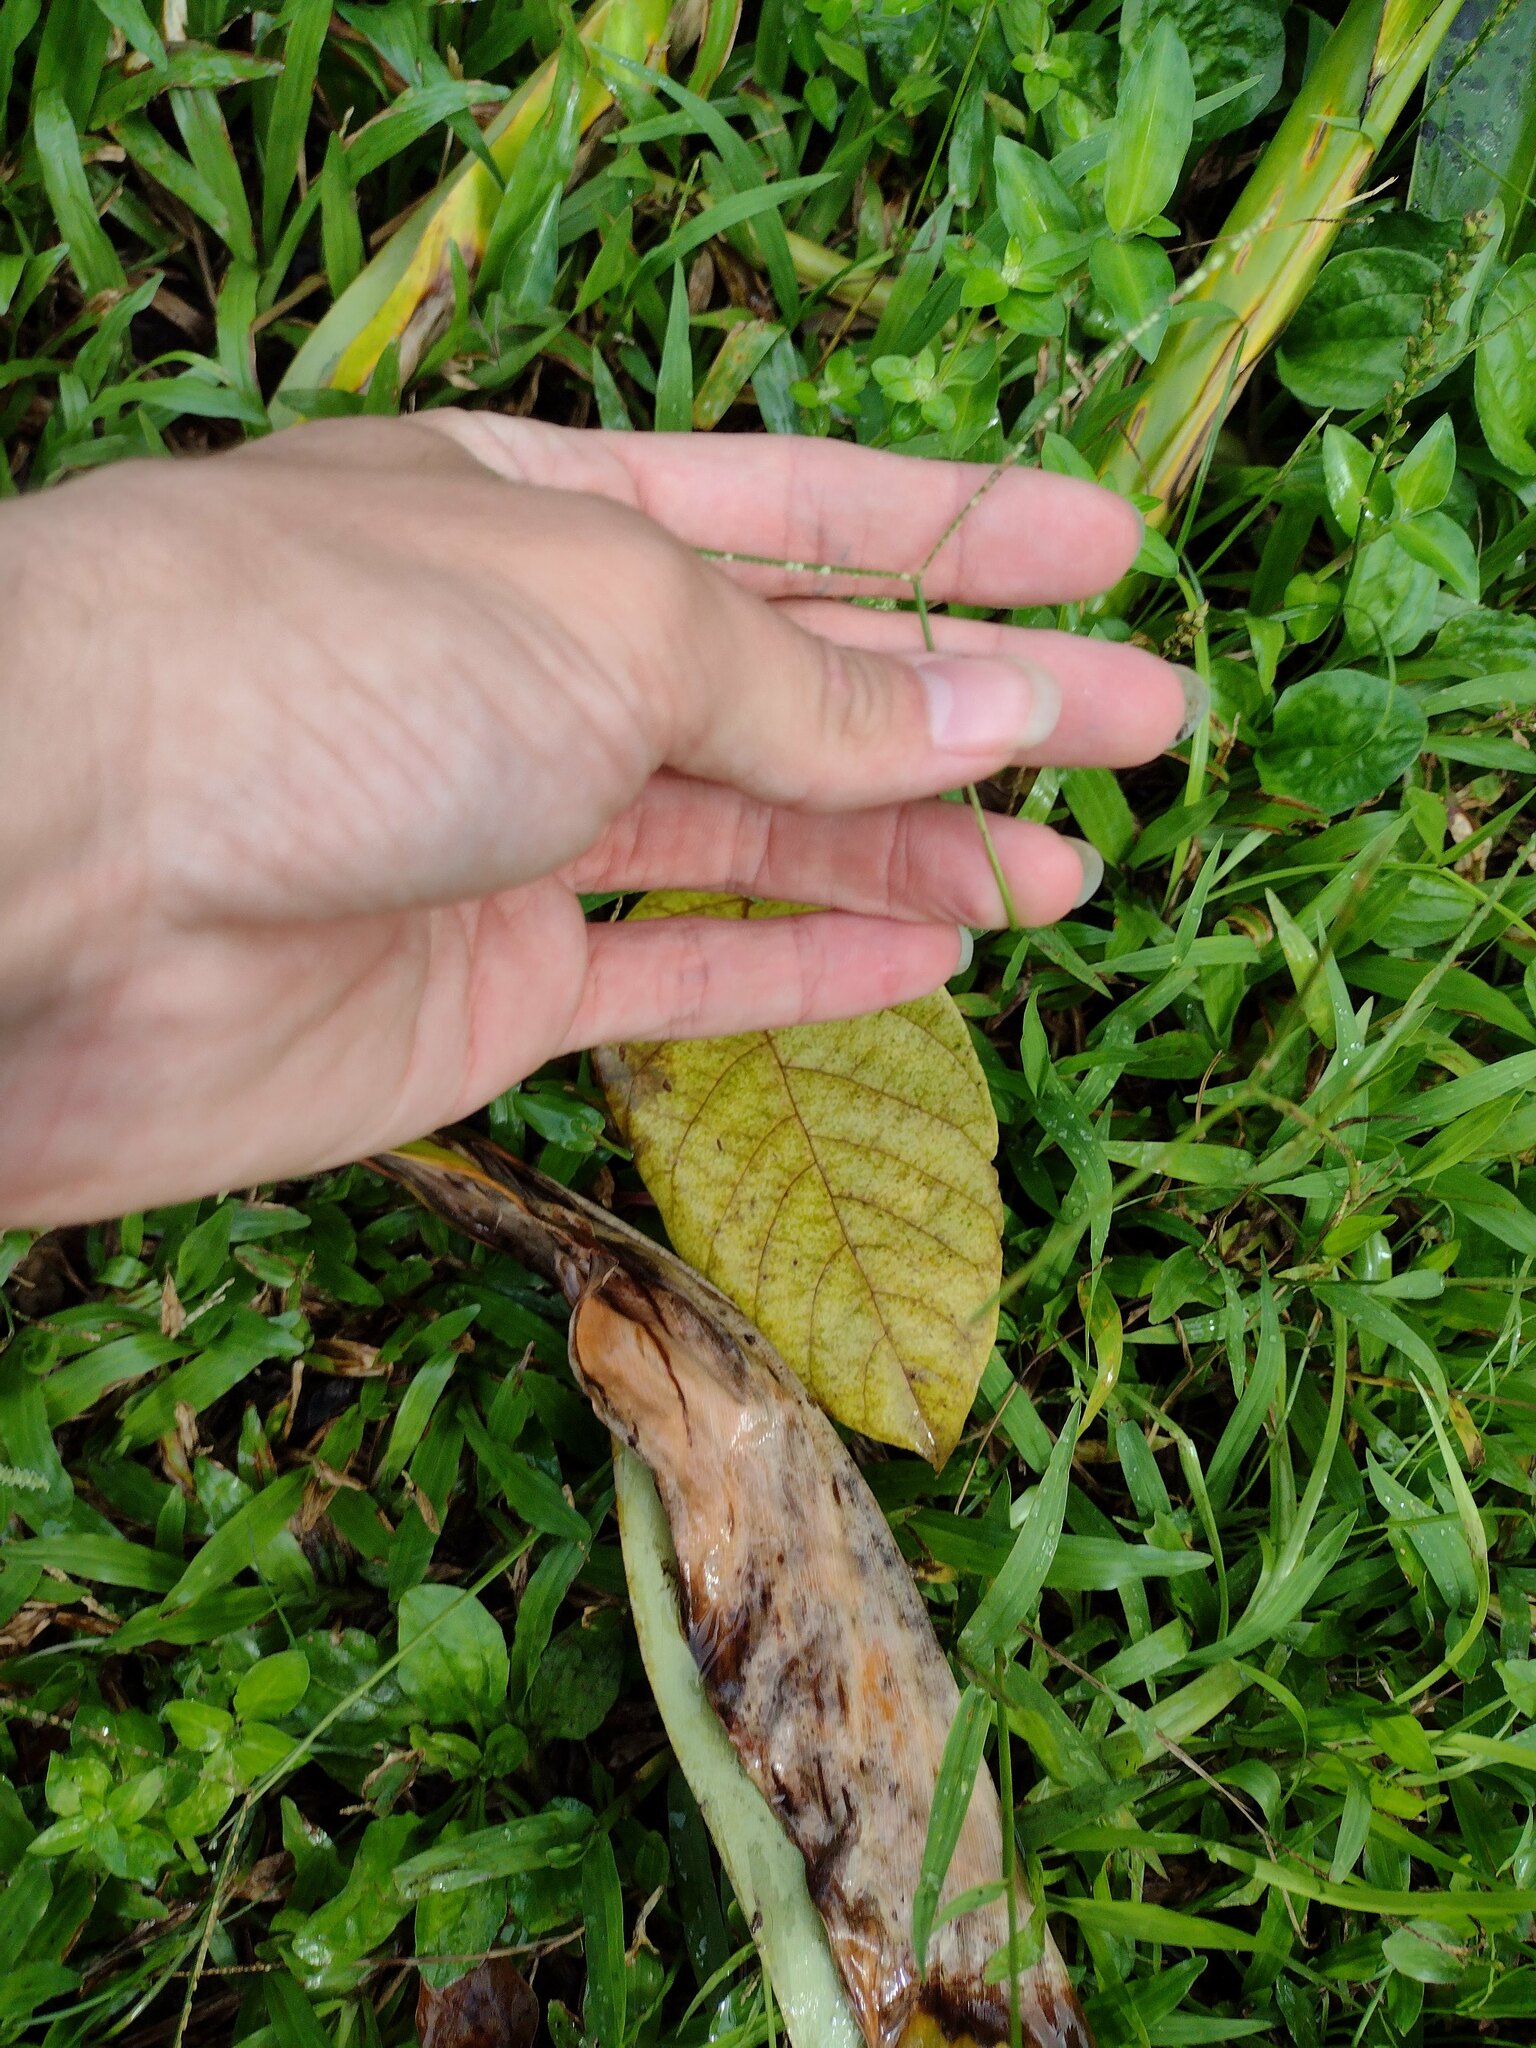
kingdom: Plantae
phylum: Tracheophyta
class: Liliopsida
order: Poales
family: Poaceae
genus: Paspalum
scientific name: Paspalum conjugatum
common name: Hilograss
